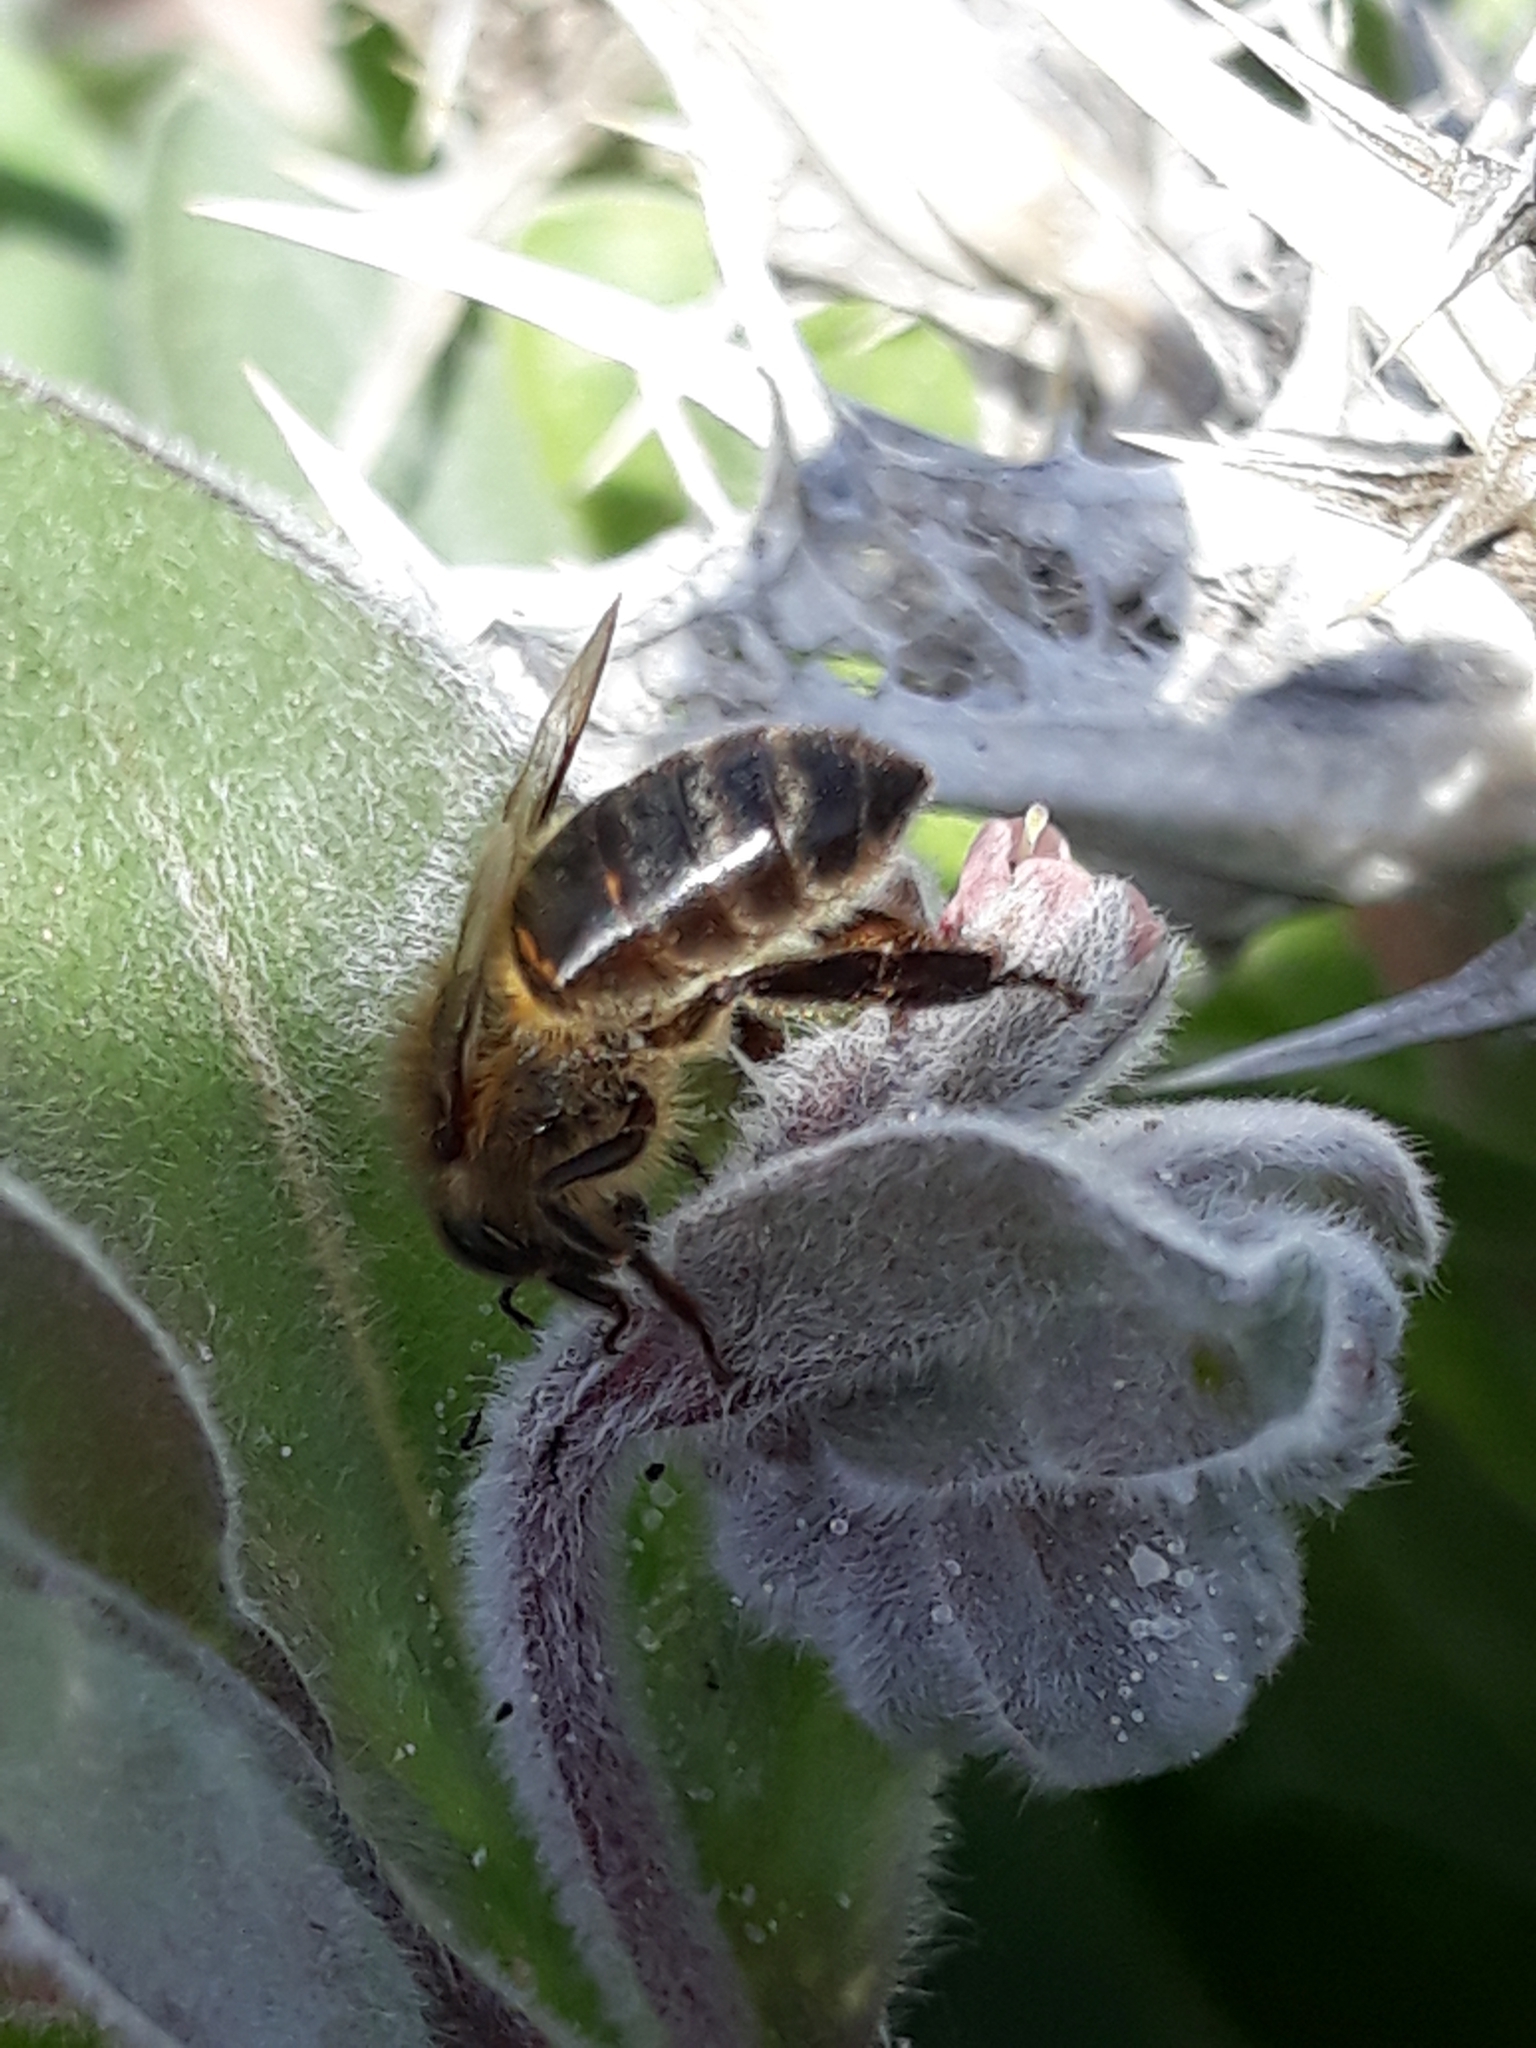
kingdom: Animalia
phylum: Arthropoda
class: Insecta
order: Hymenoptera
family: Apidae
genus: Apis
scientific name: Apis mellifera
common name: Honey bee
